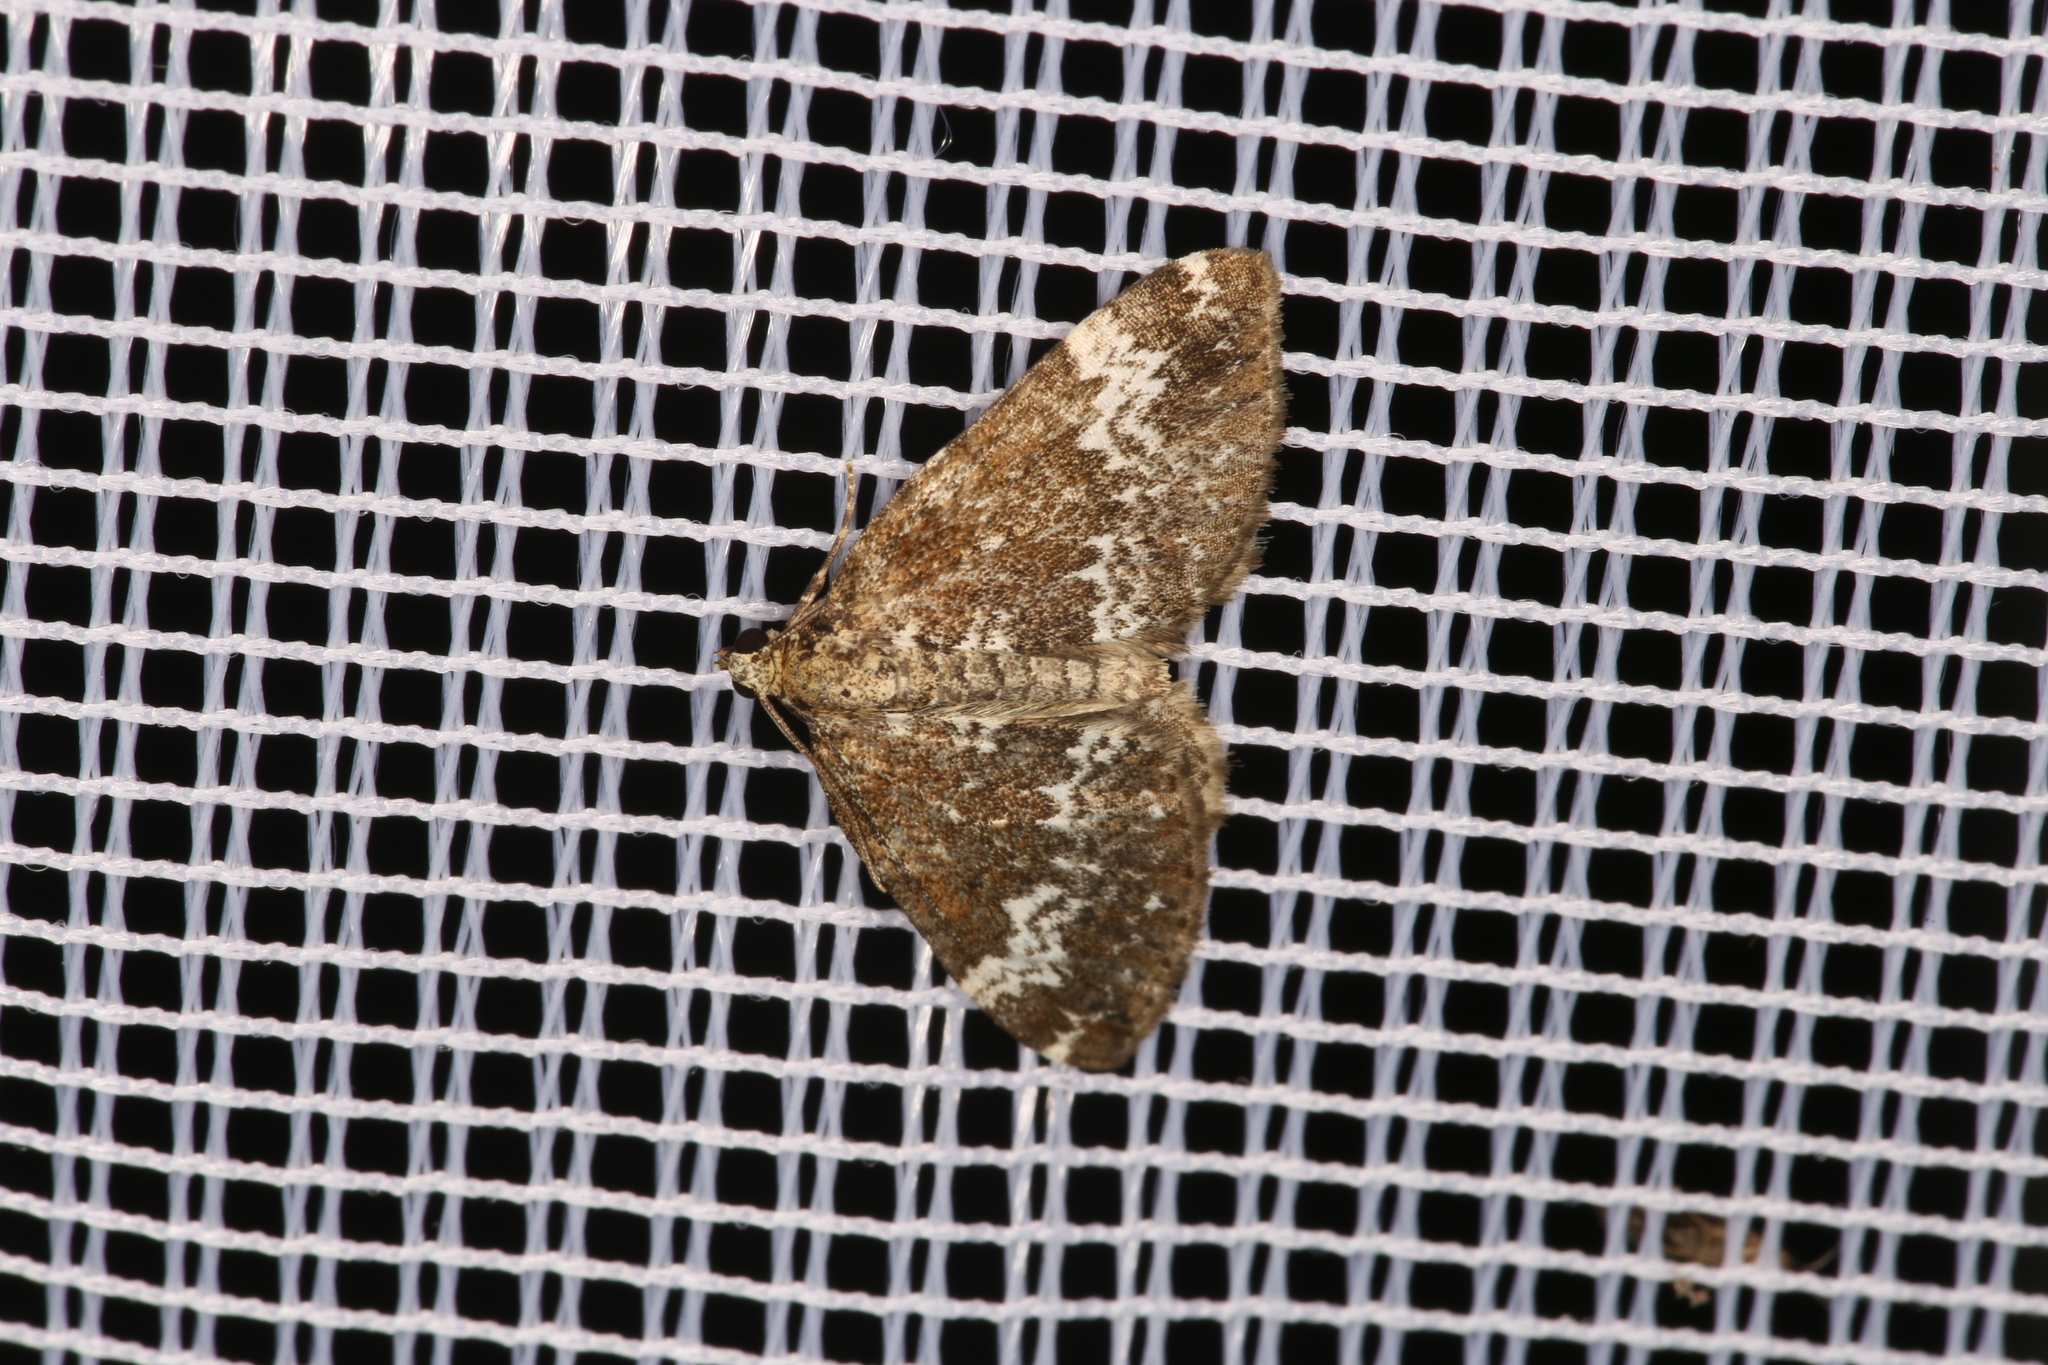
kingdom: Animalia
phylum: Arthropoda
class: Insecta
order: Lepidoptera
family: Geometridae
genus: Perizoma
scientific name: Perizoma alchemillata
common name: Small rivulet
